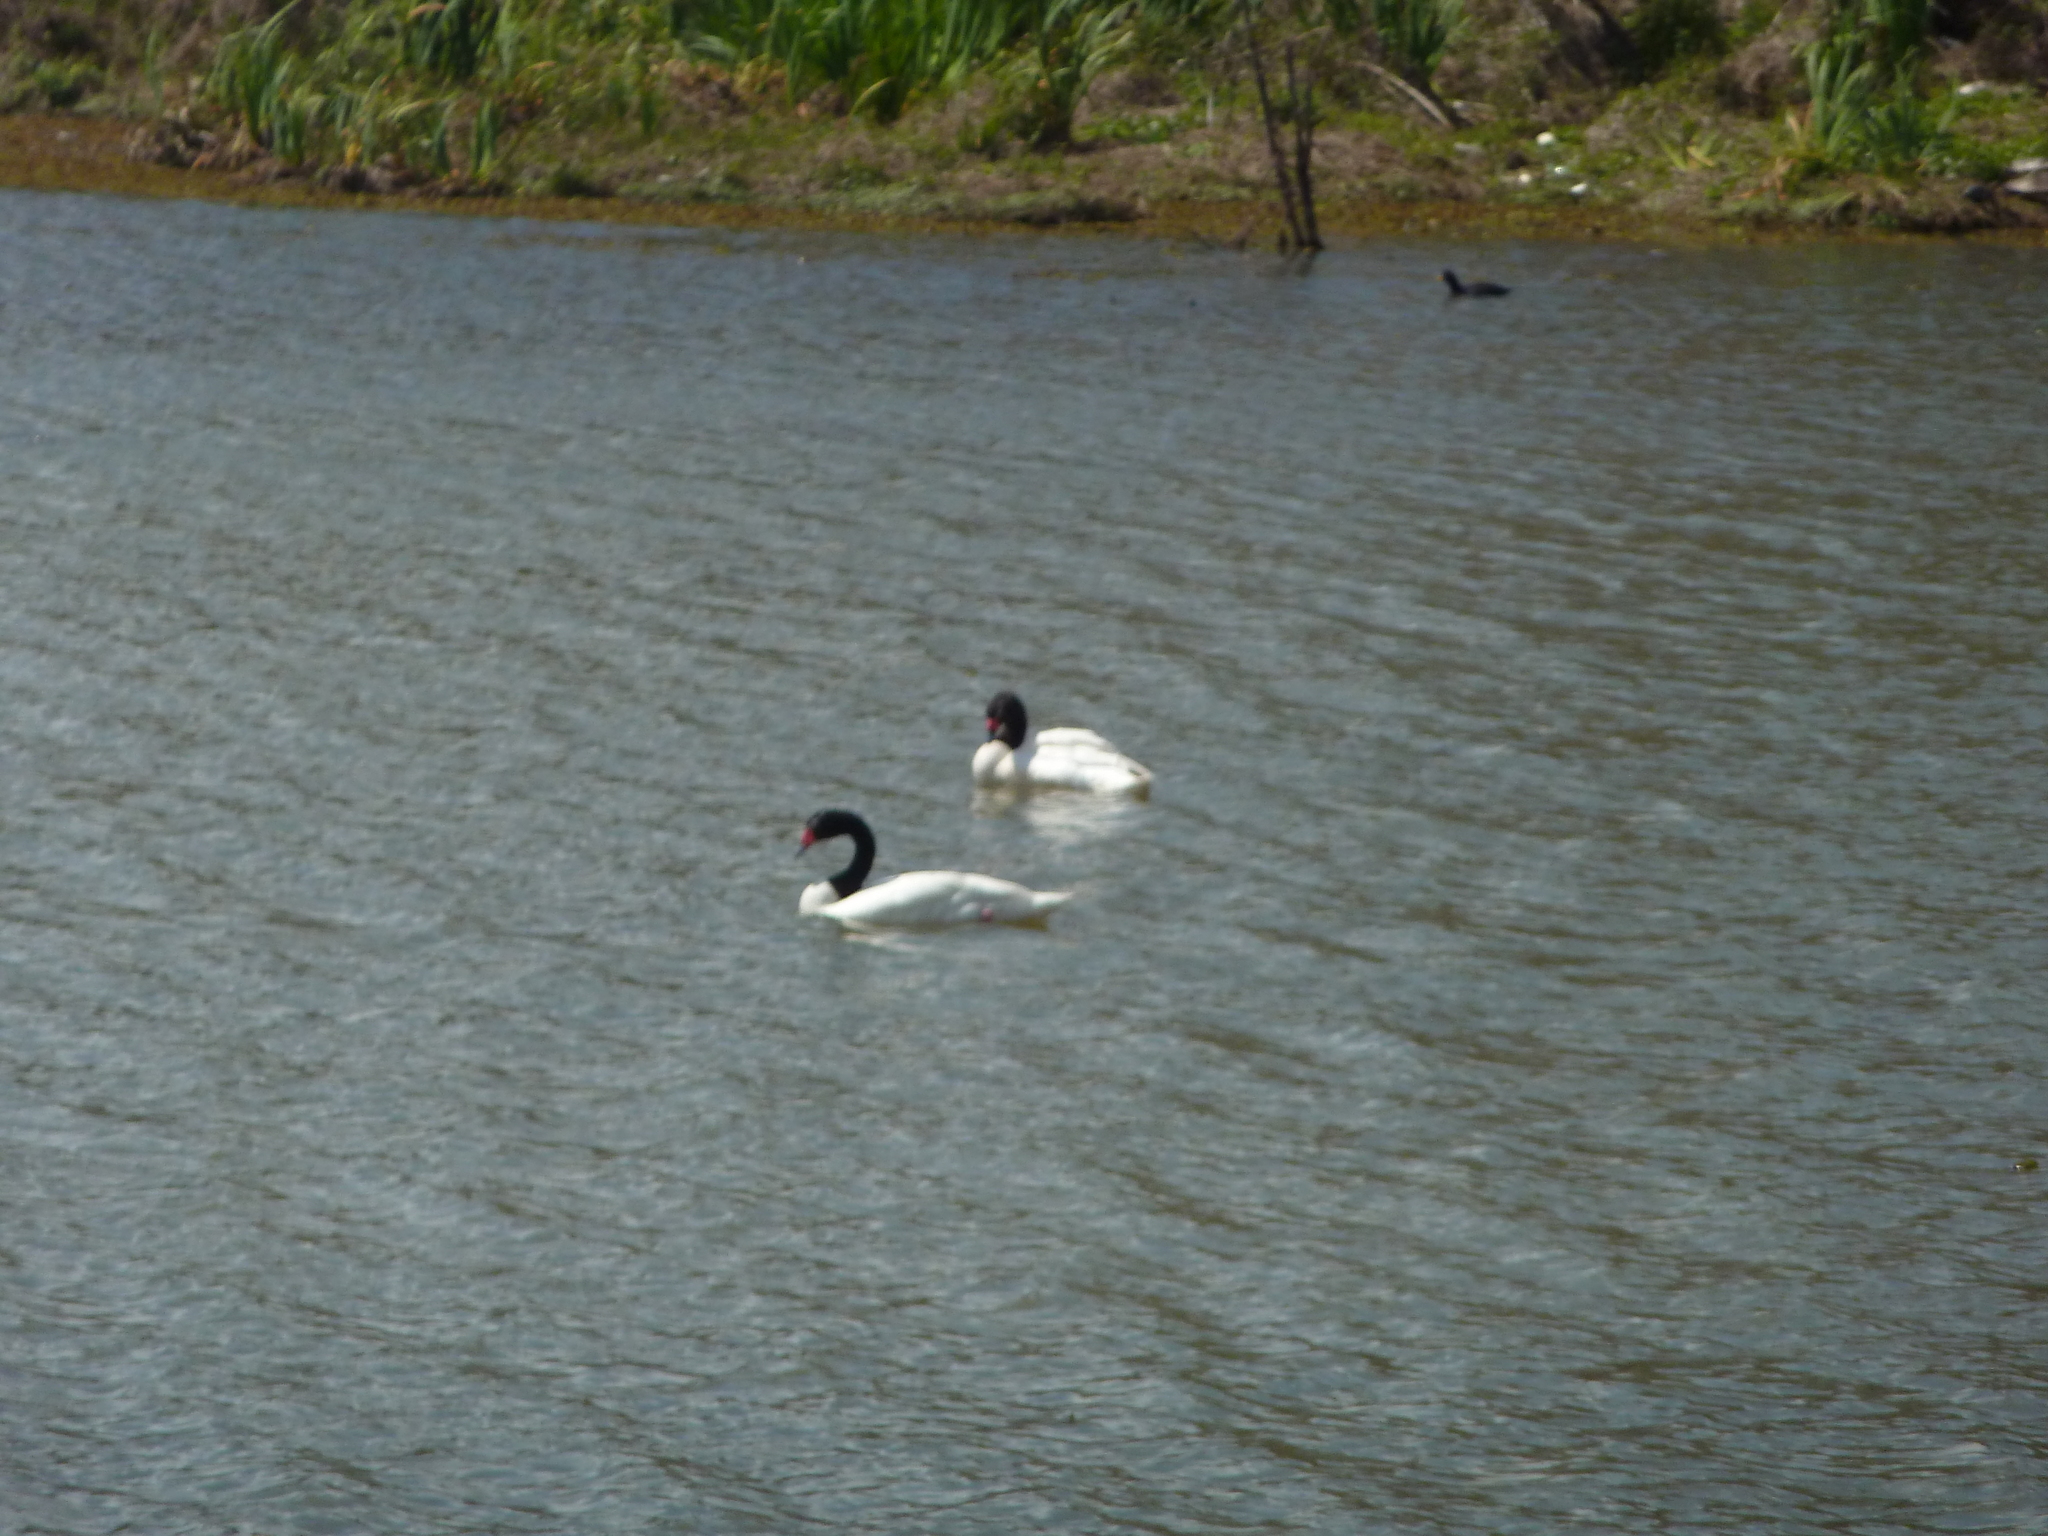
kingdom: Animalia
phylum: Chordata
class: Aves
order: Anseriformes
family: Anatidae
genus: Cygnus
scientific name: Cygnus melancoryphus
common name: Black-necked swan
